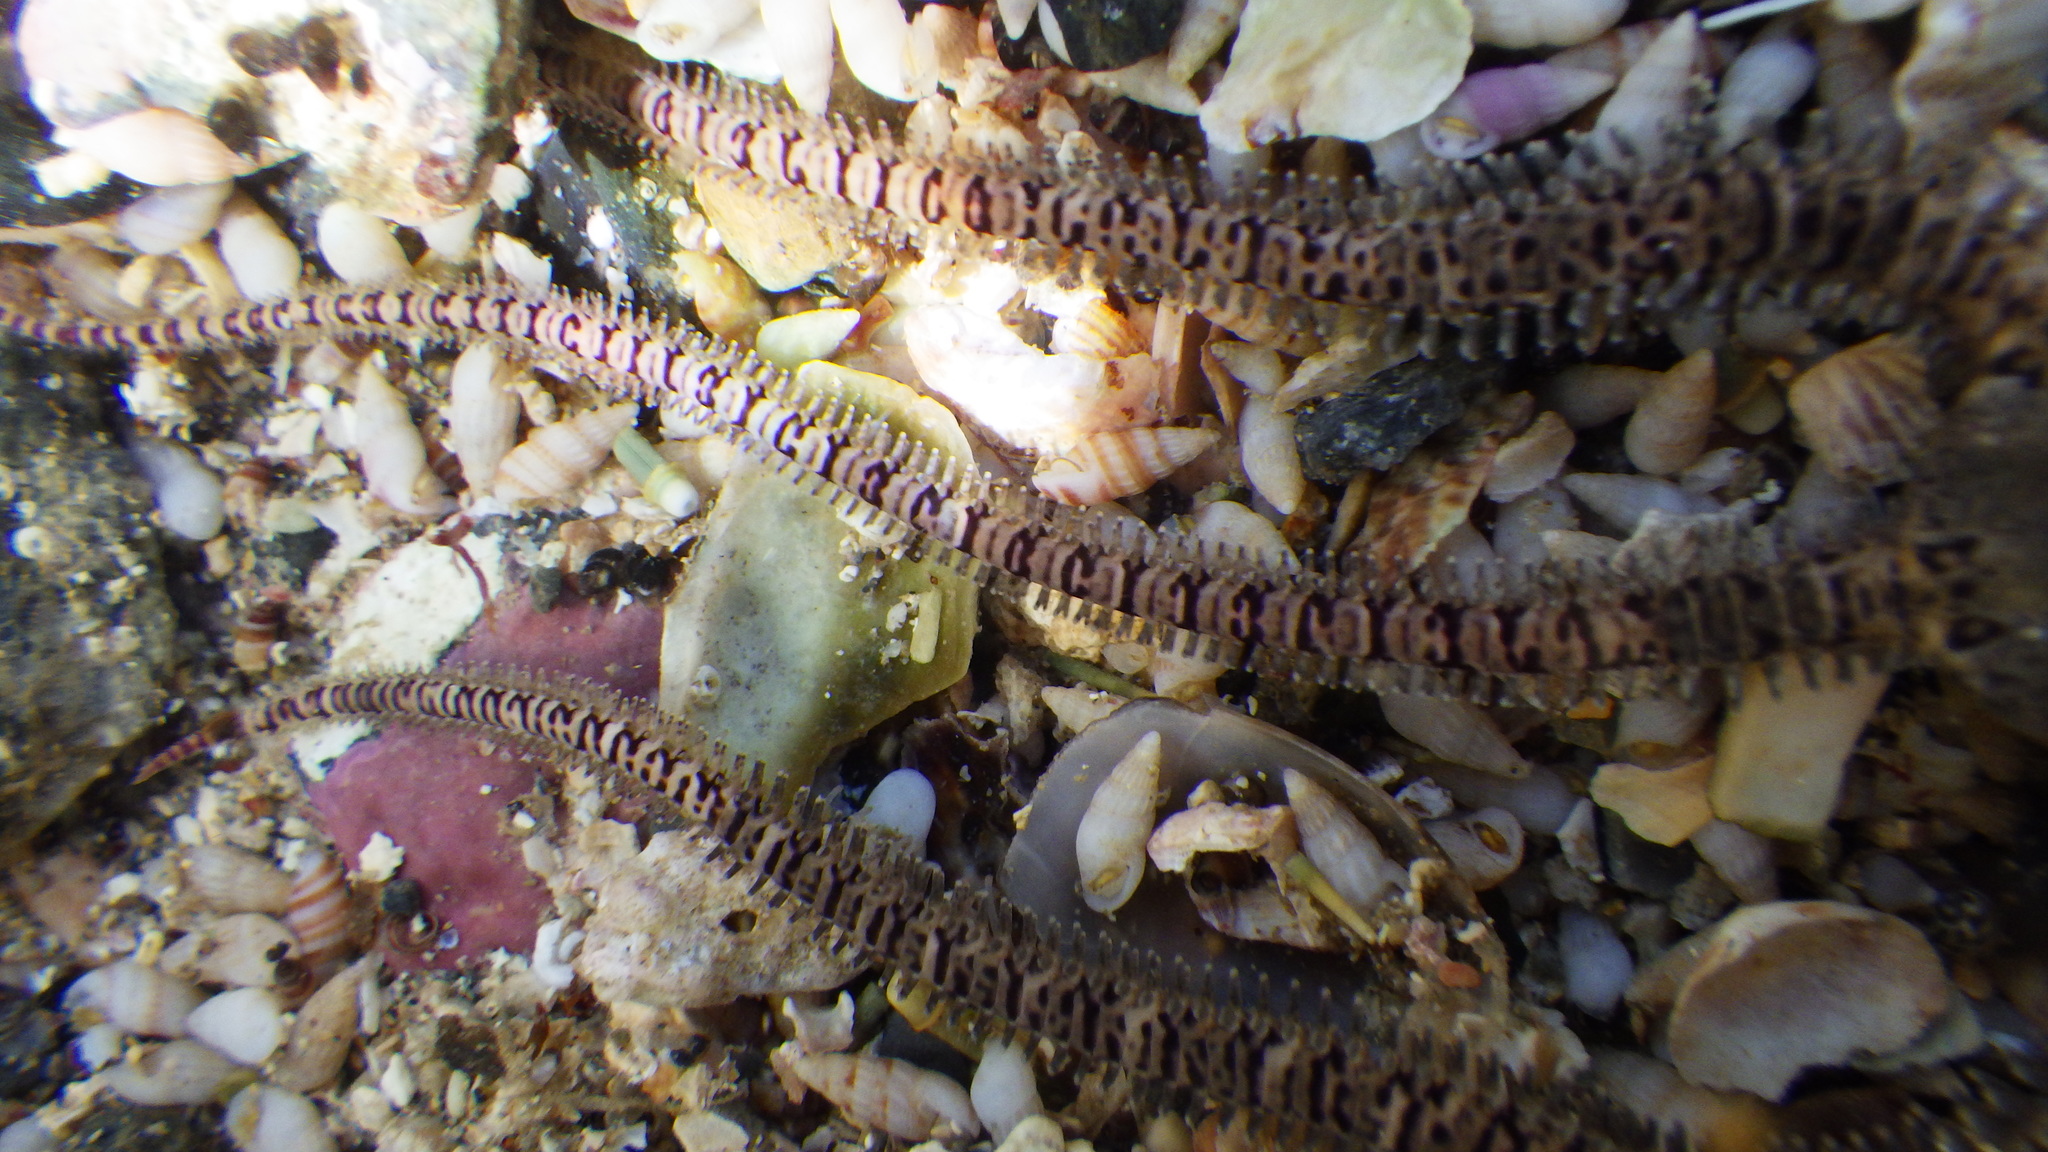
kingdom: Animalia
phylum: Mollusca
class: Gastropoda
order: Littorinimorpha
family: Rissoinidae
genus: Rissoina
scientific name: Rissoina chathamensis
